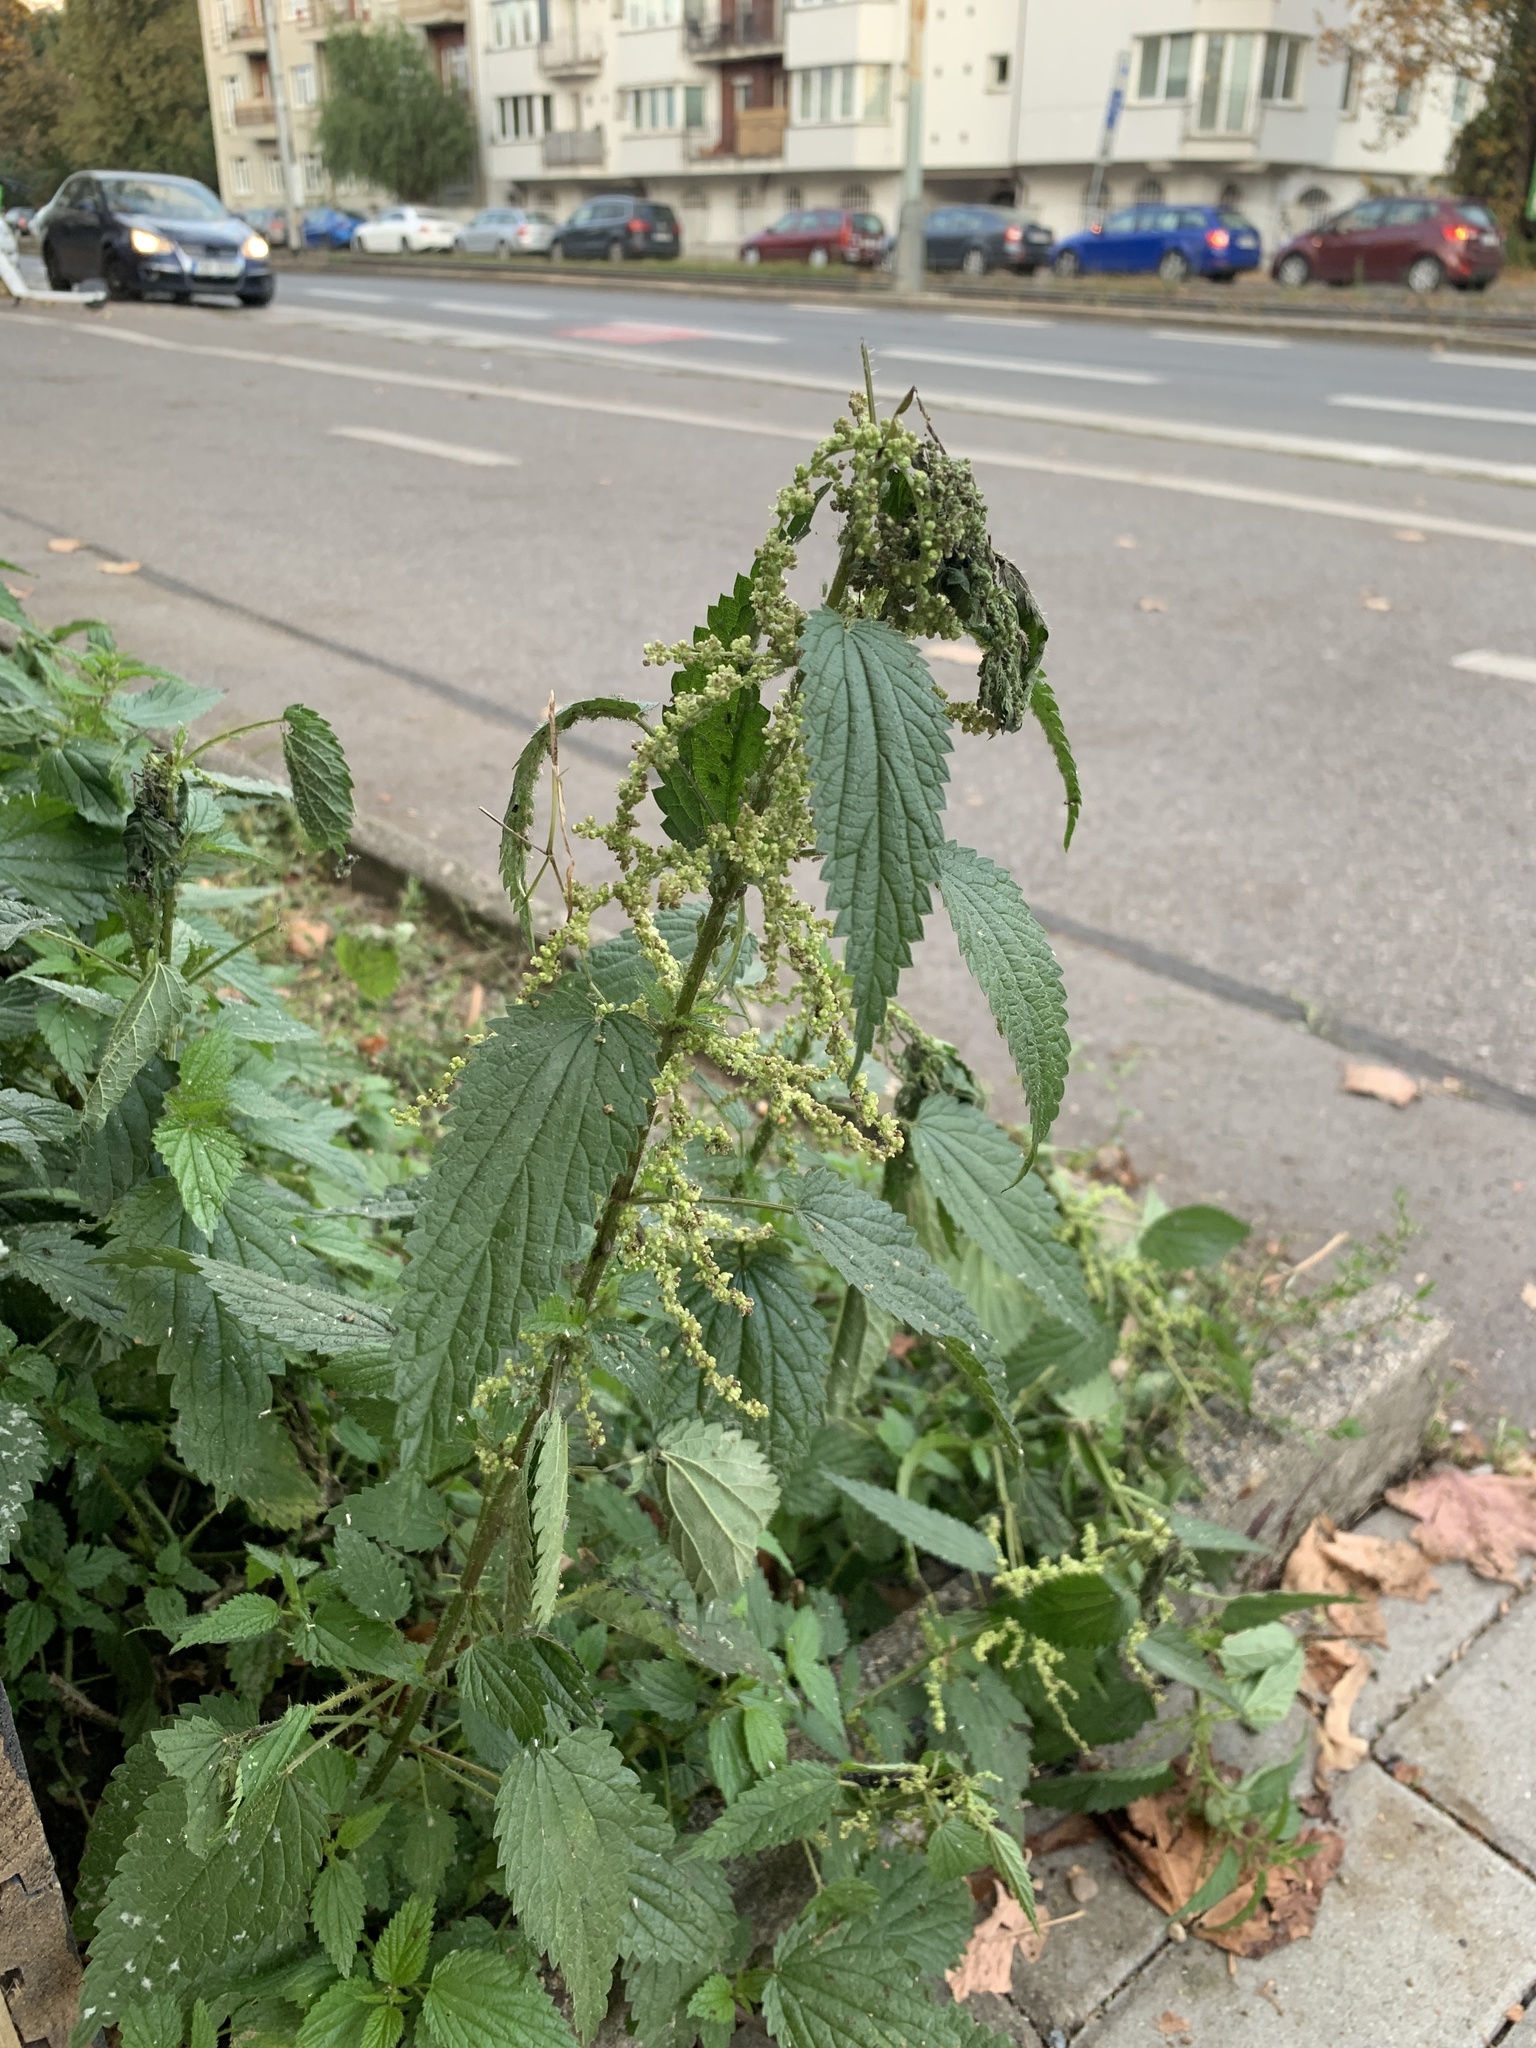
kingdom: Plantae
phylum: Tracheophyta
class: Magnoliopsida
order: Rosales
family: Urticaceae
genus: Urtica
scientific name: Urtica dioica
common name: Common nettle
